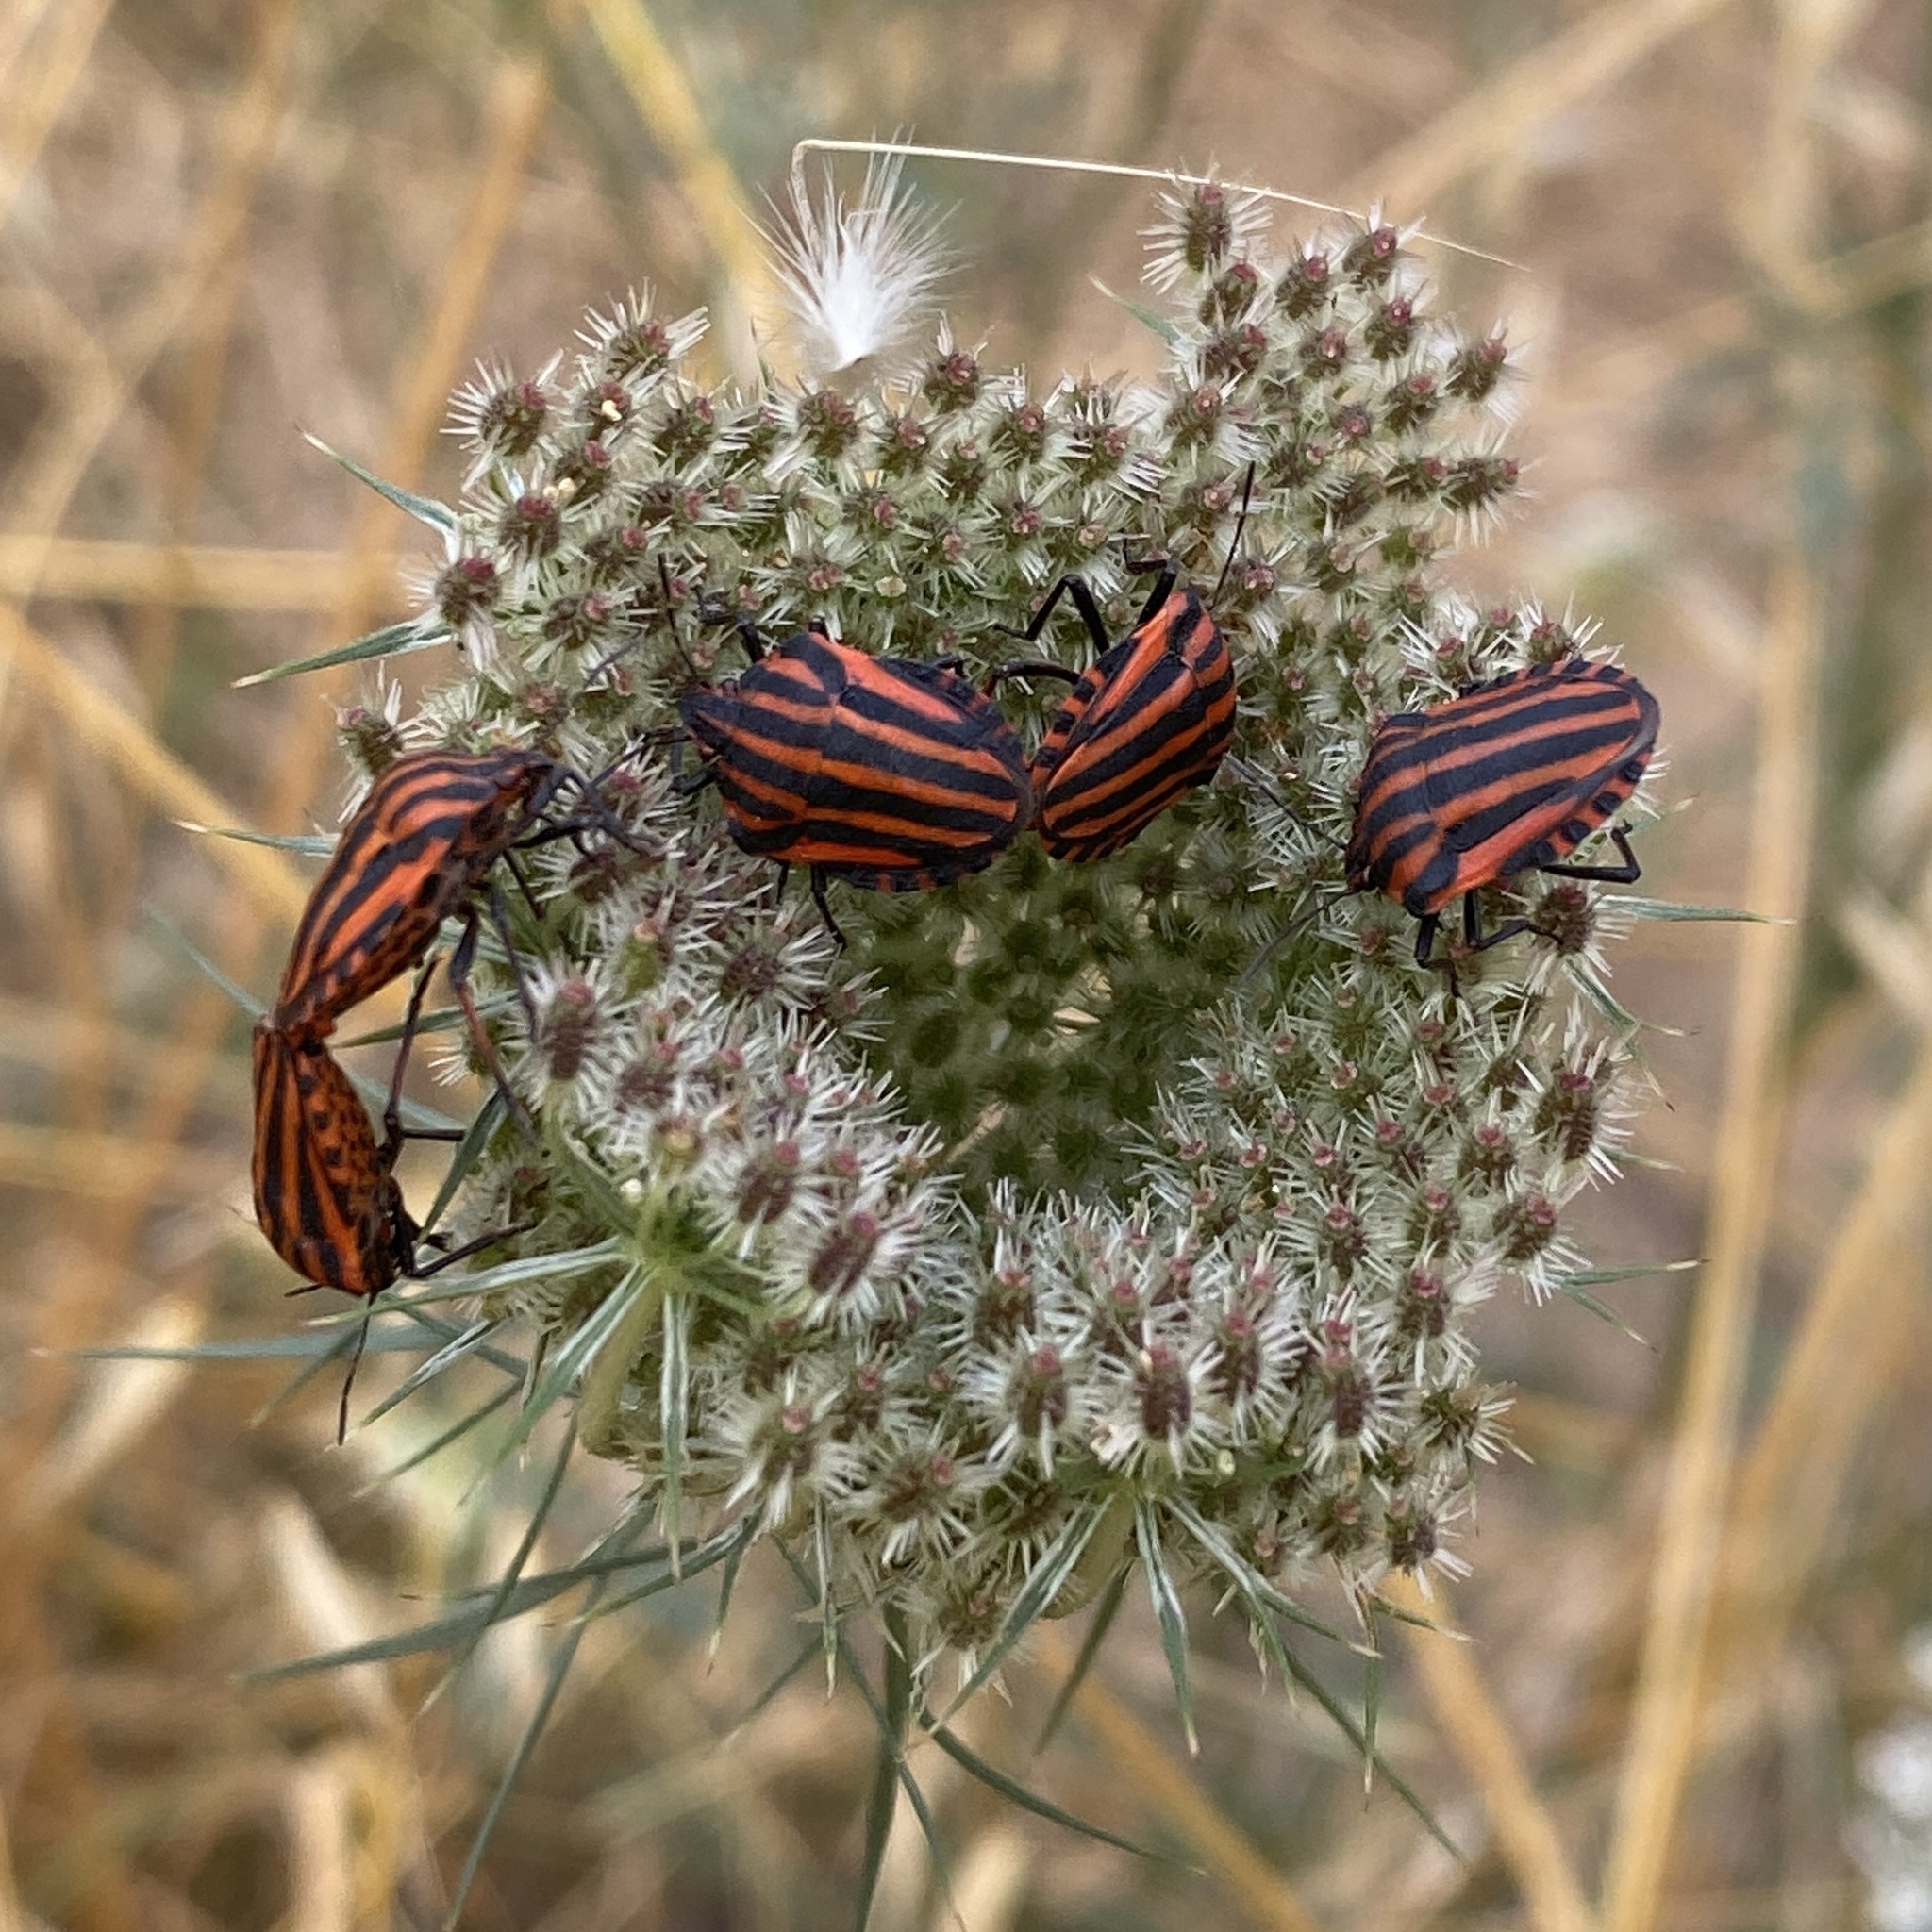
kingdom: Animalia
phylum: Arthropoda
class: Insecta
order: Hemiptera
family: Pentatomidae
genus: Graphosoma
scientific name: Graphosoma italicum
